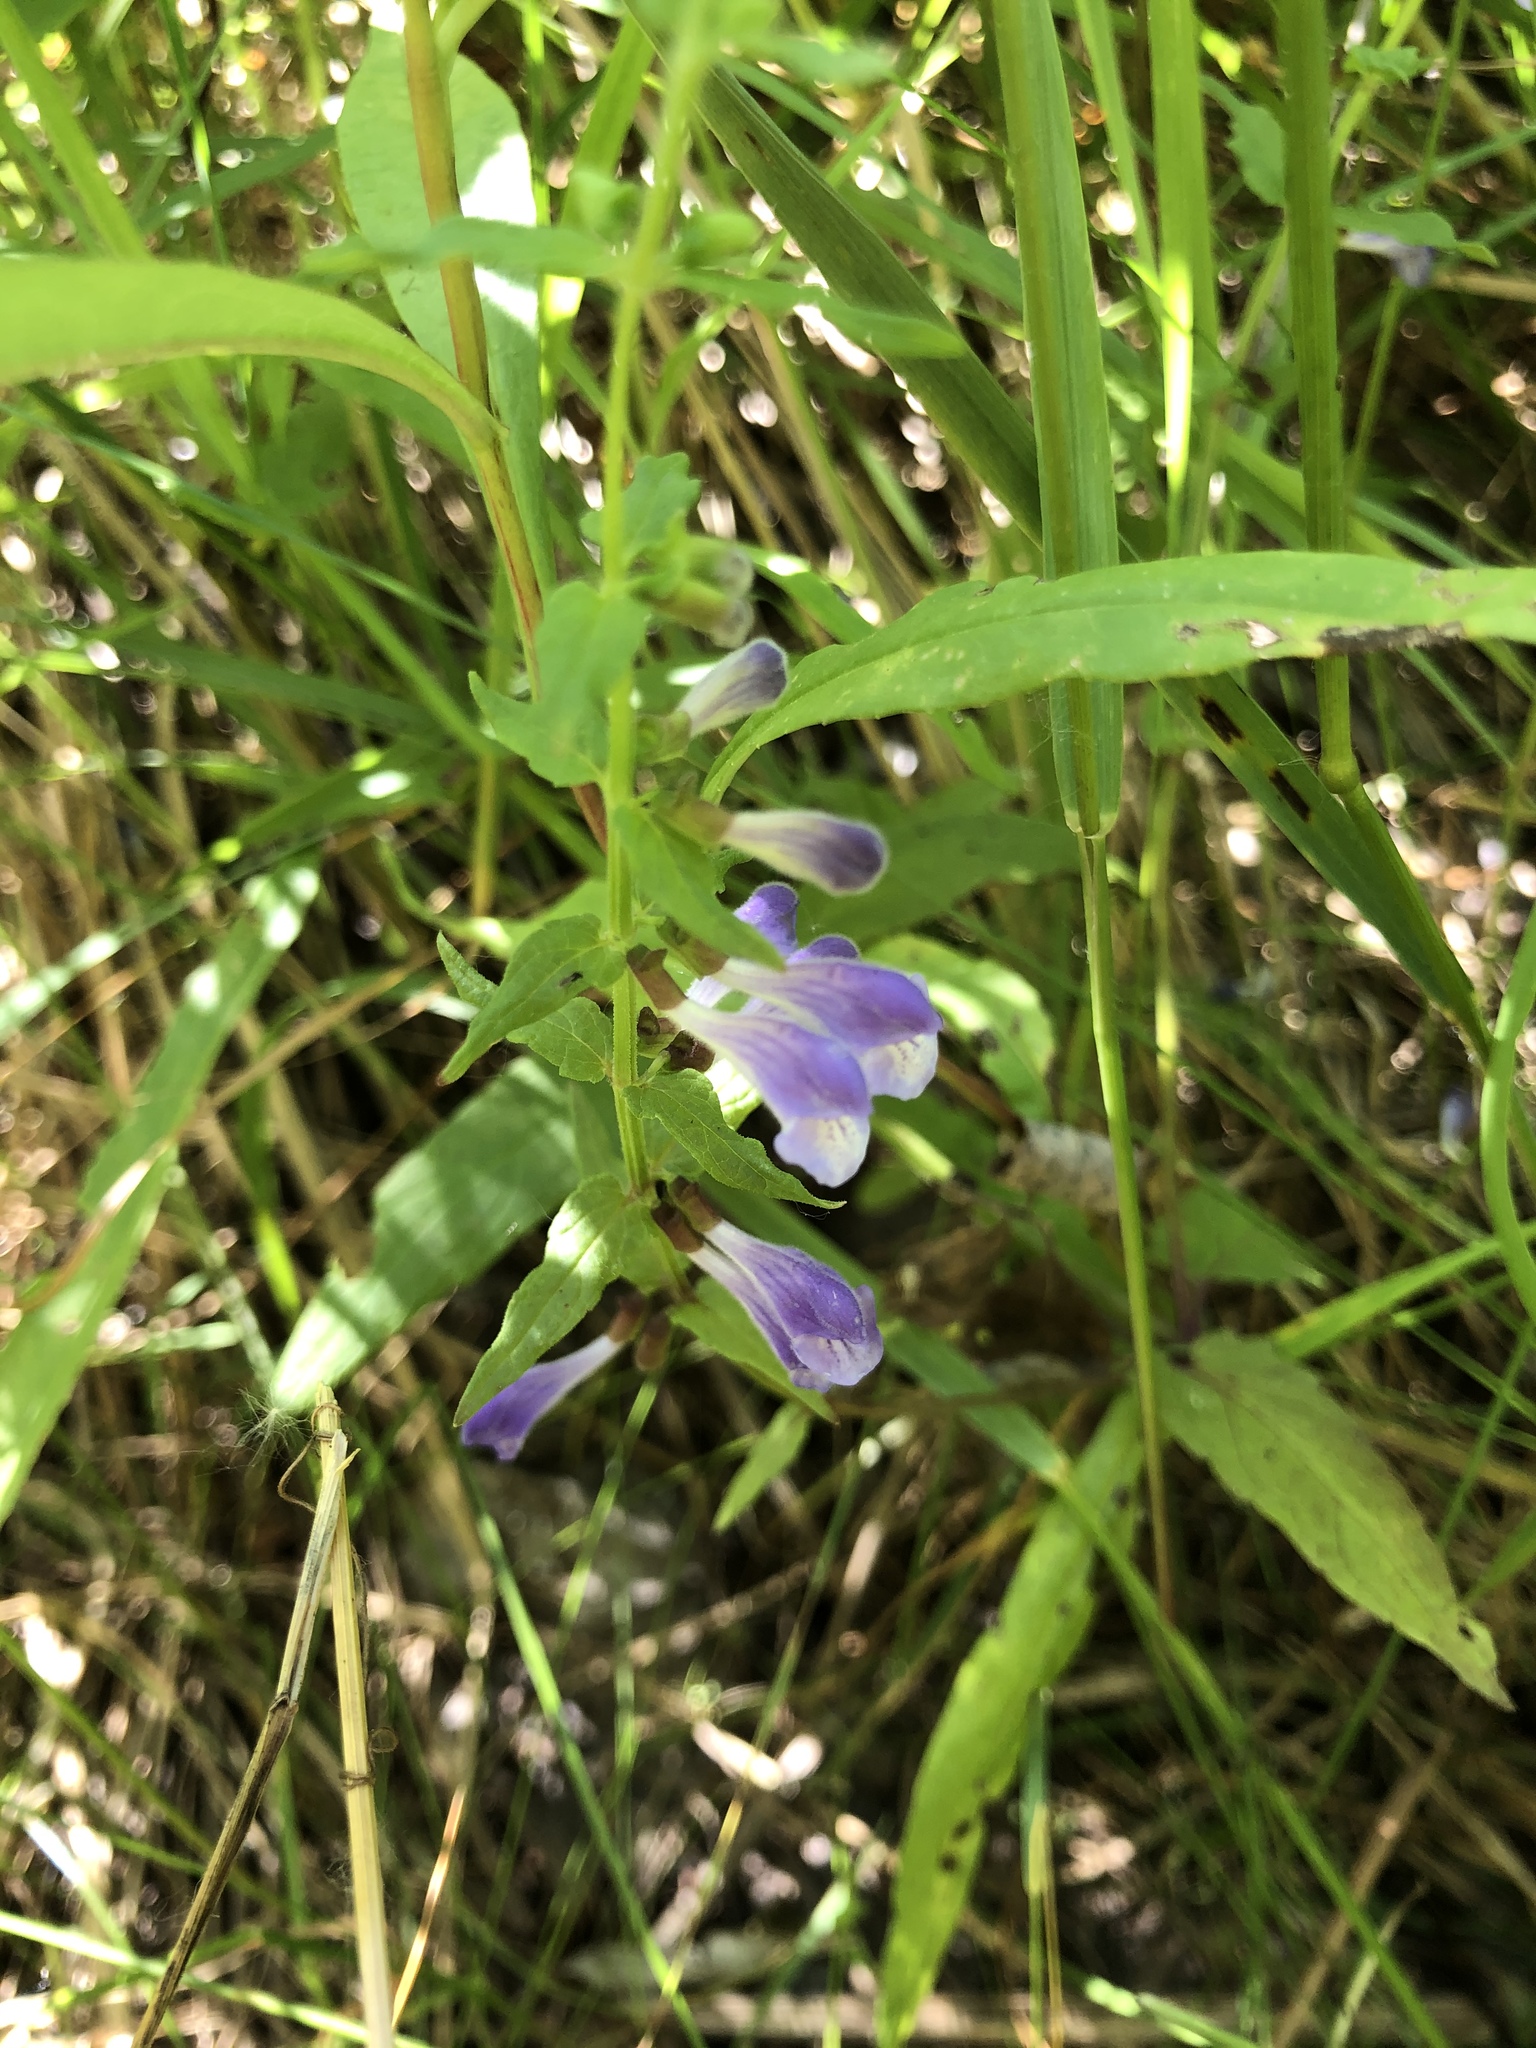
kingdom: Plantae
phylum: Tracheophyta
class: Magnoliopsida
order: Lamiales
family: Lamiaceae
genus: Scutellaria
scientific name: Scutellaria galericulata
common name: Skullcap
